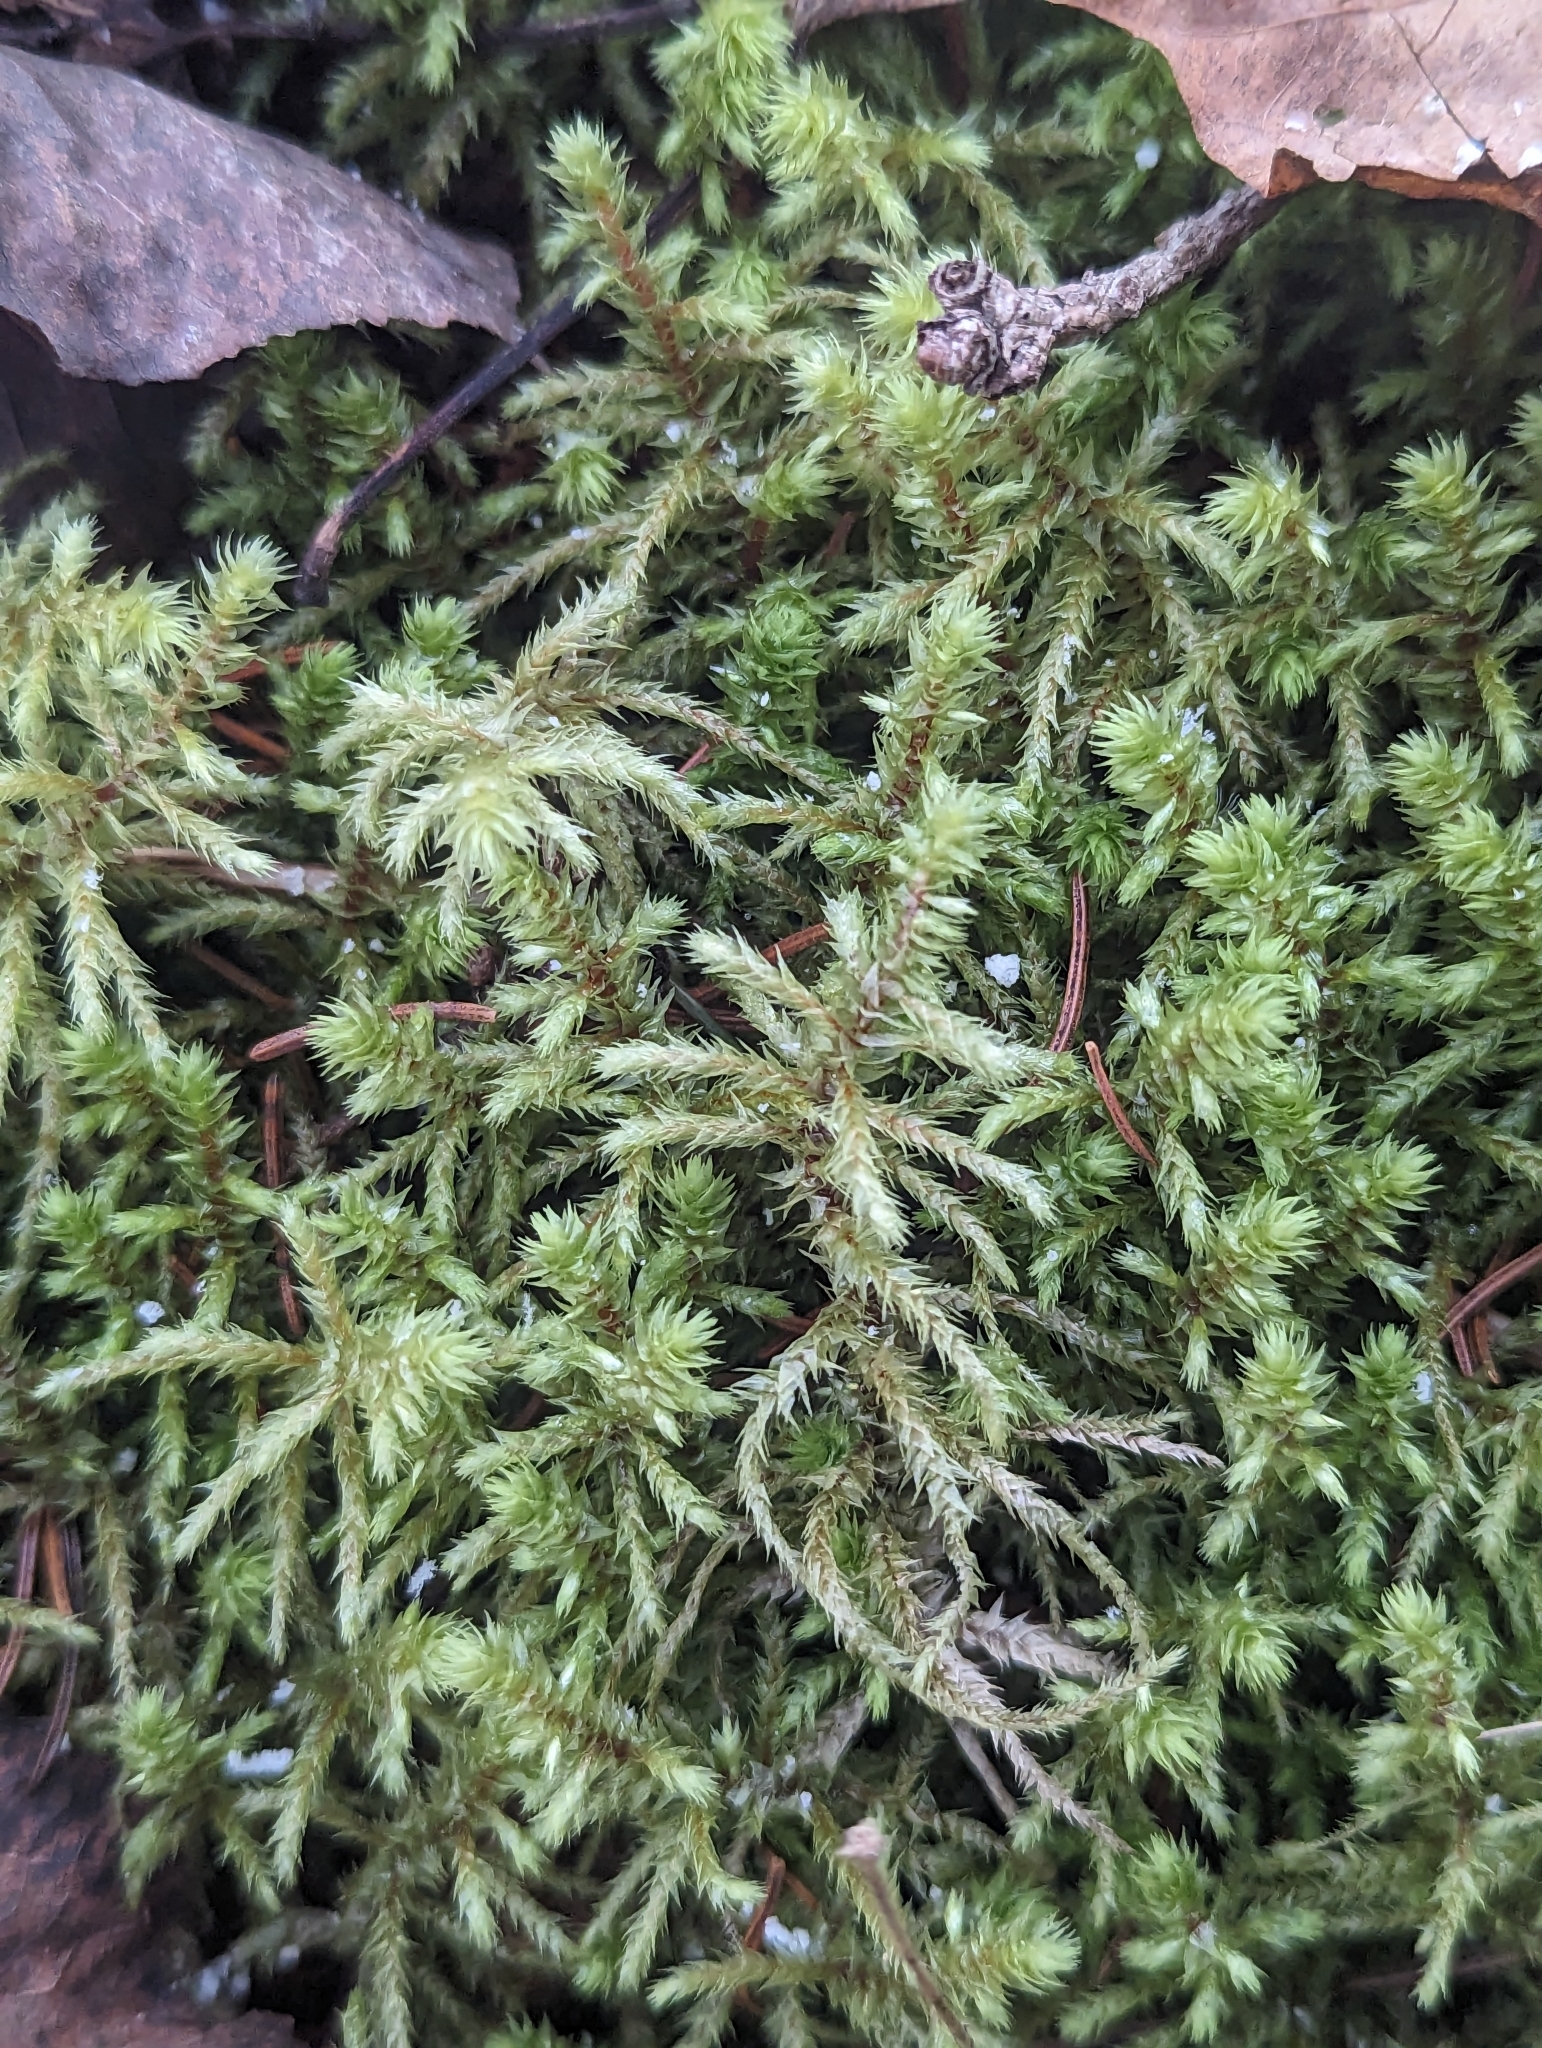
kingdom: Plantae
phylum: Bryophyta
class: Bryopsida
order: Hypnales
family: Hylocomiaceae
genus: Hylocomiadelphus
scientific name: Hylocomiadelphus triquetrus
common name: Rough goose neck moss
